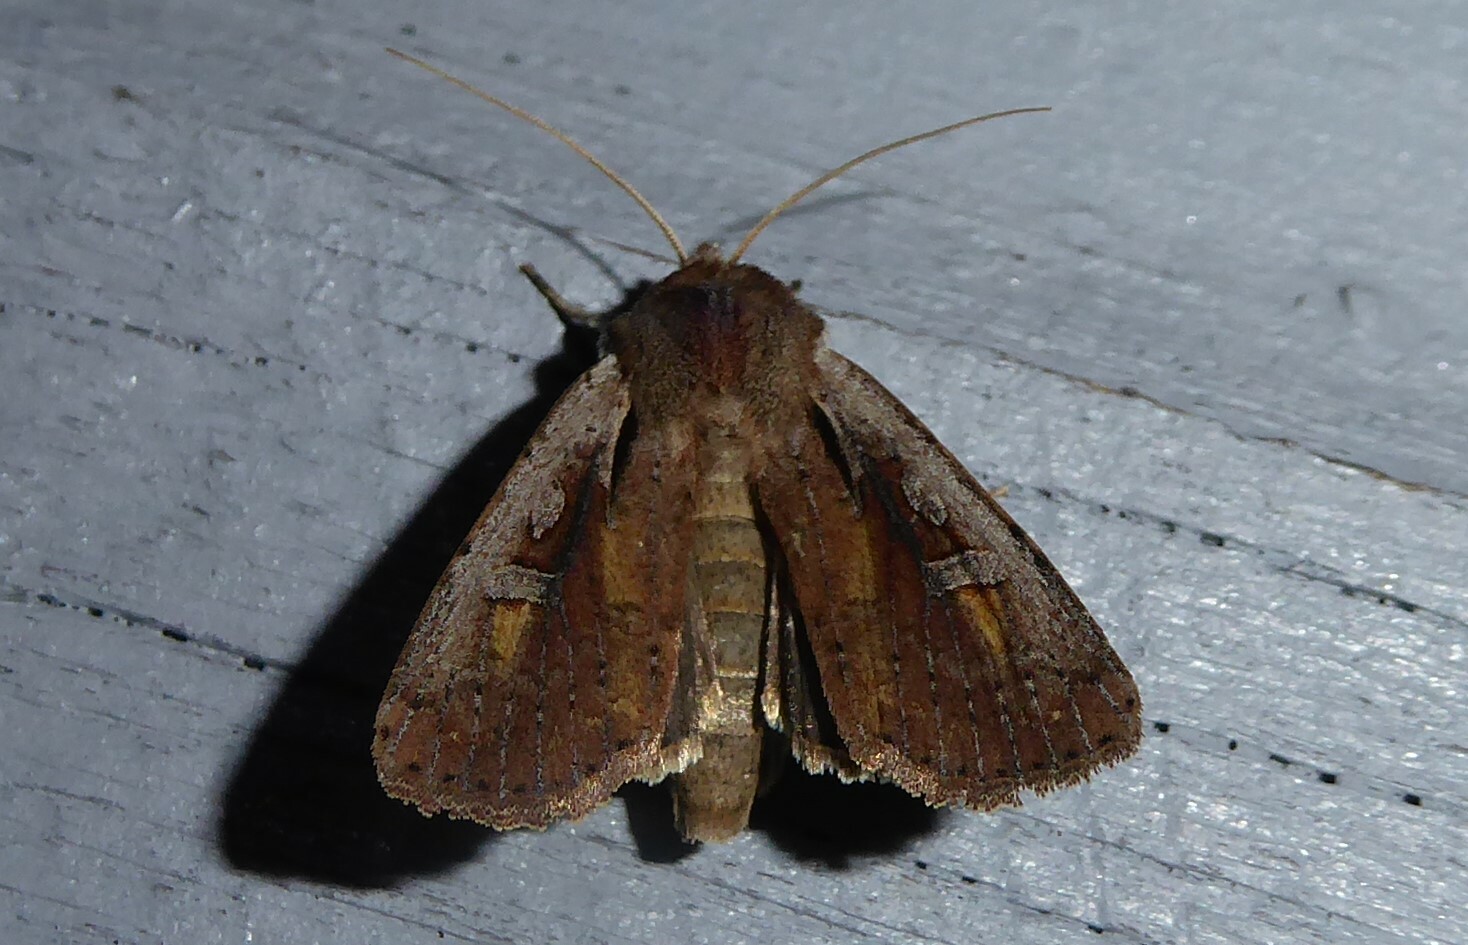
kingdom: Animalia
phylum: Arthropoda
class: Insecta
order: Lepidoptera
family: Noctuidae
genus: Ichneutica
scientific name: Ichneutica atristriga
